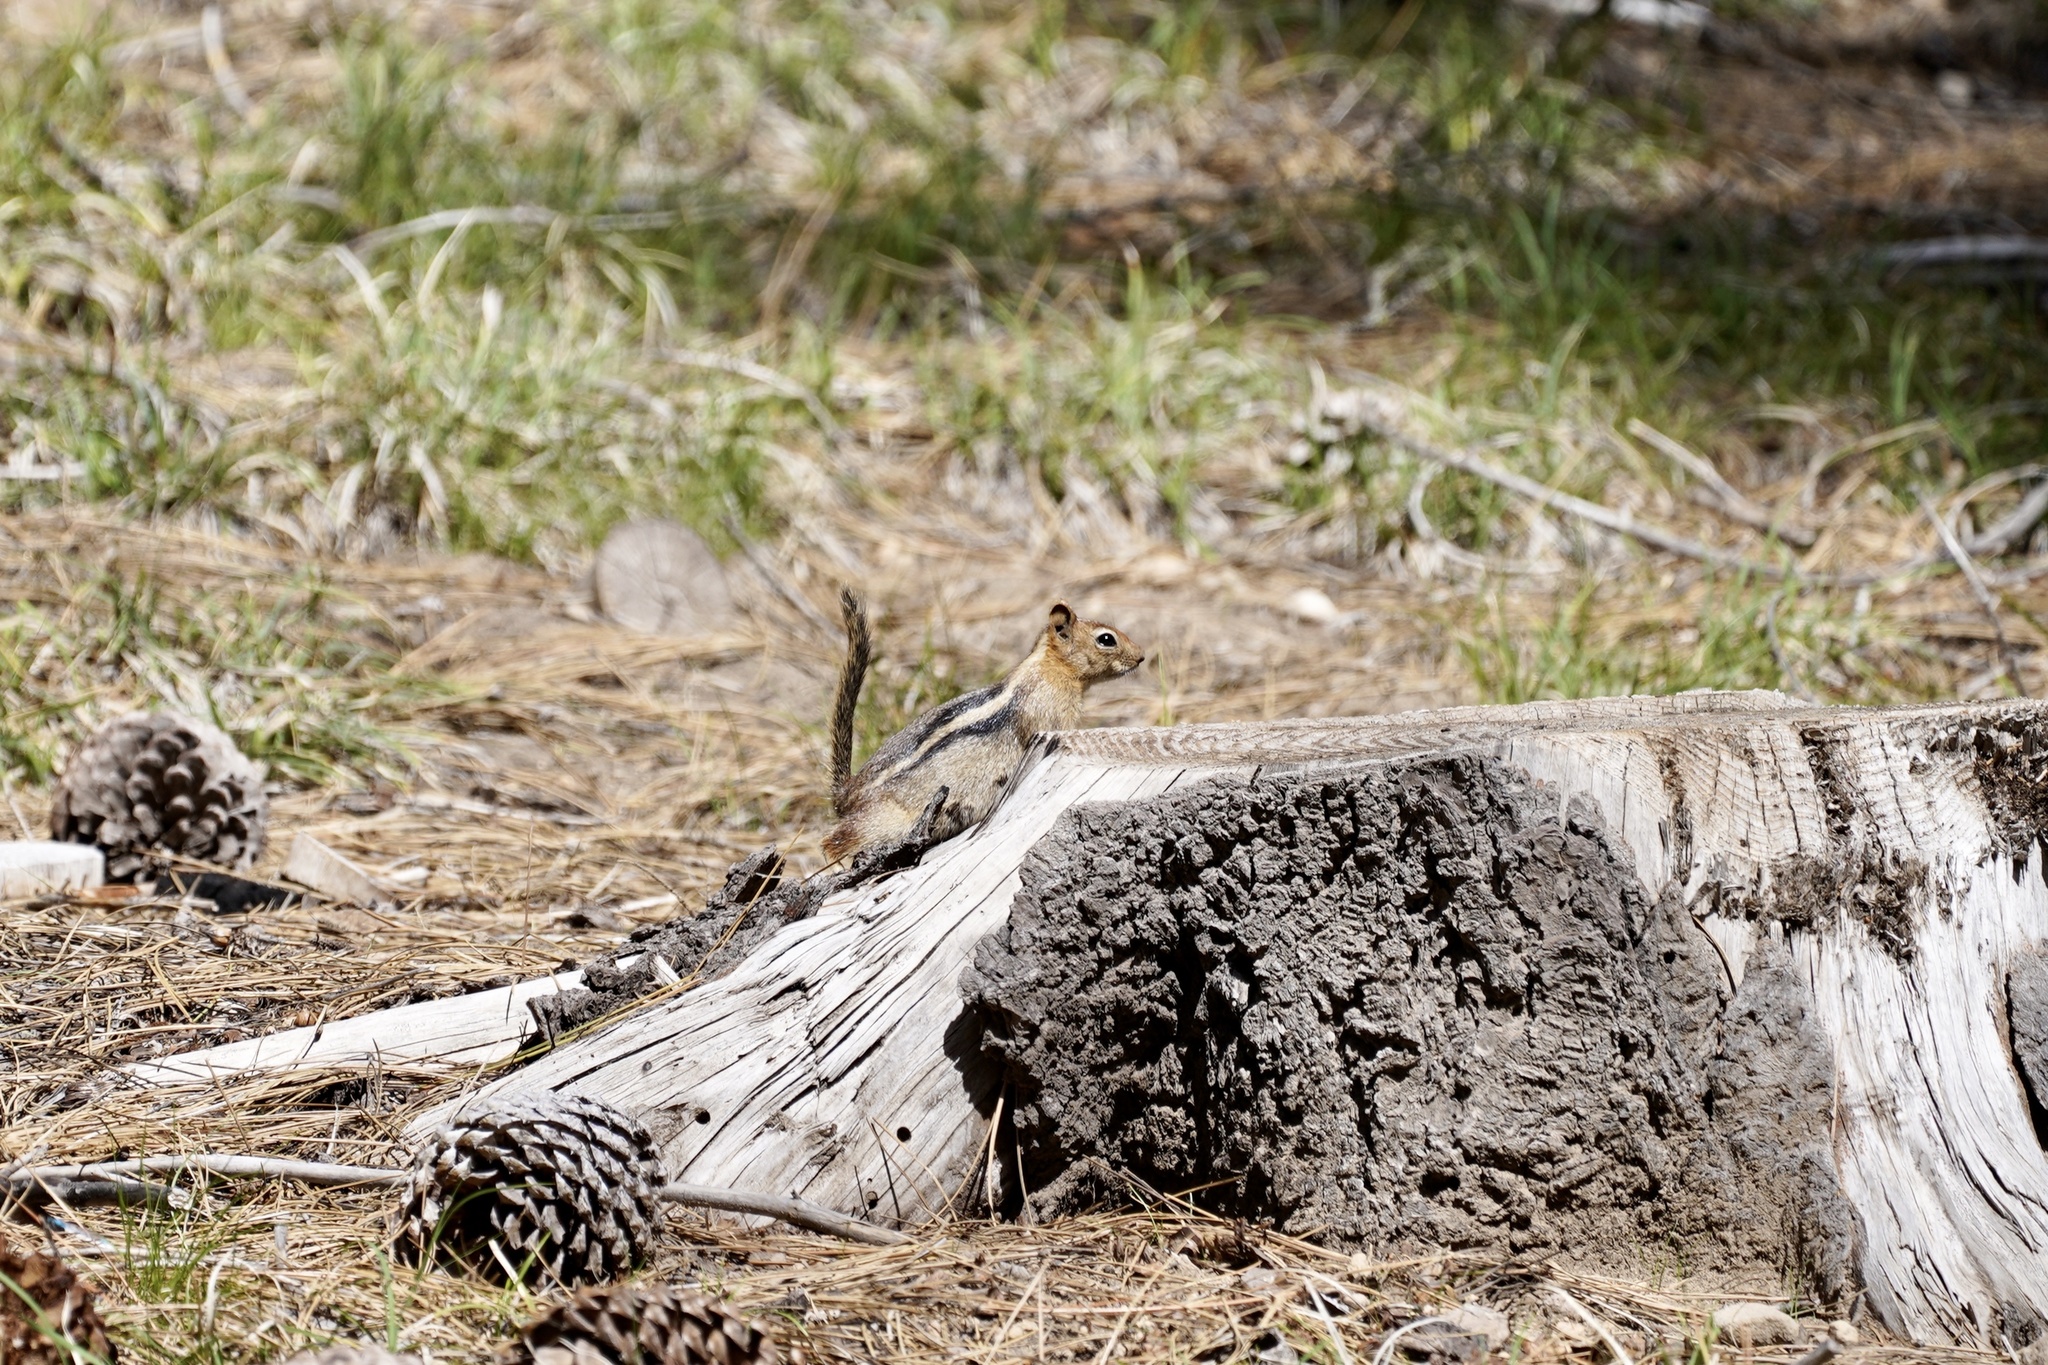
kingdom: Animalia
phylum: Chordata
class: Mammalia
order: Rodentia
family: Sciuridae
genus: Callospermophilus
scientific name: Callospermophilus lateralis
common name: Golden-mantled ground squirrel
